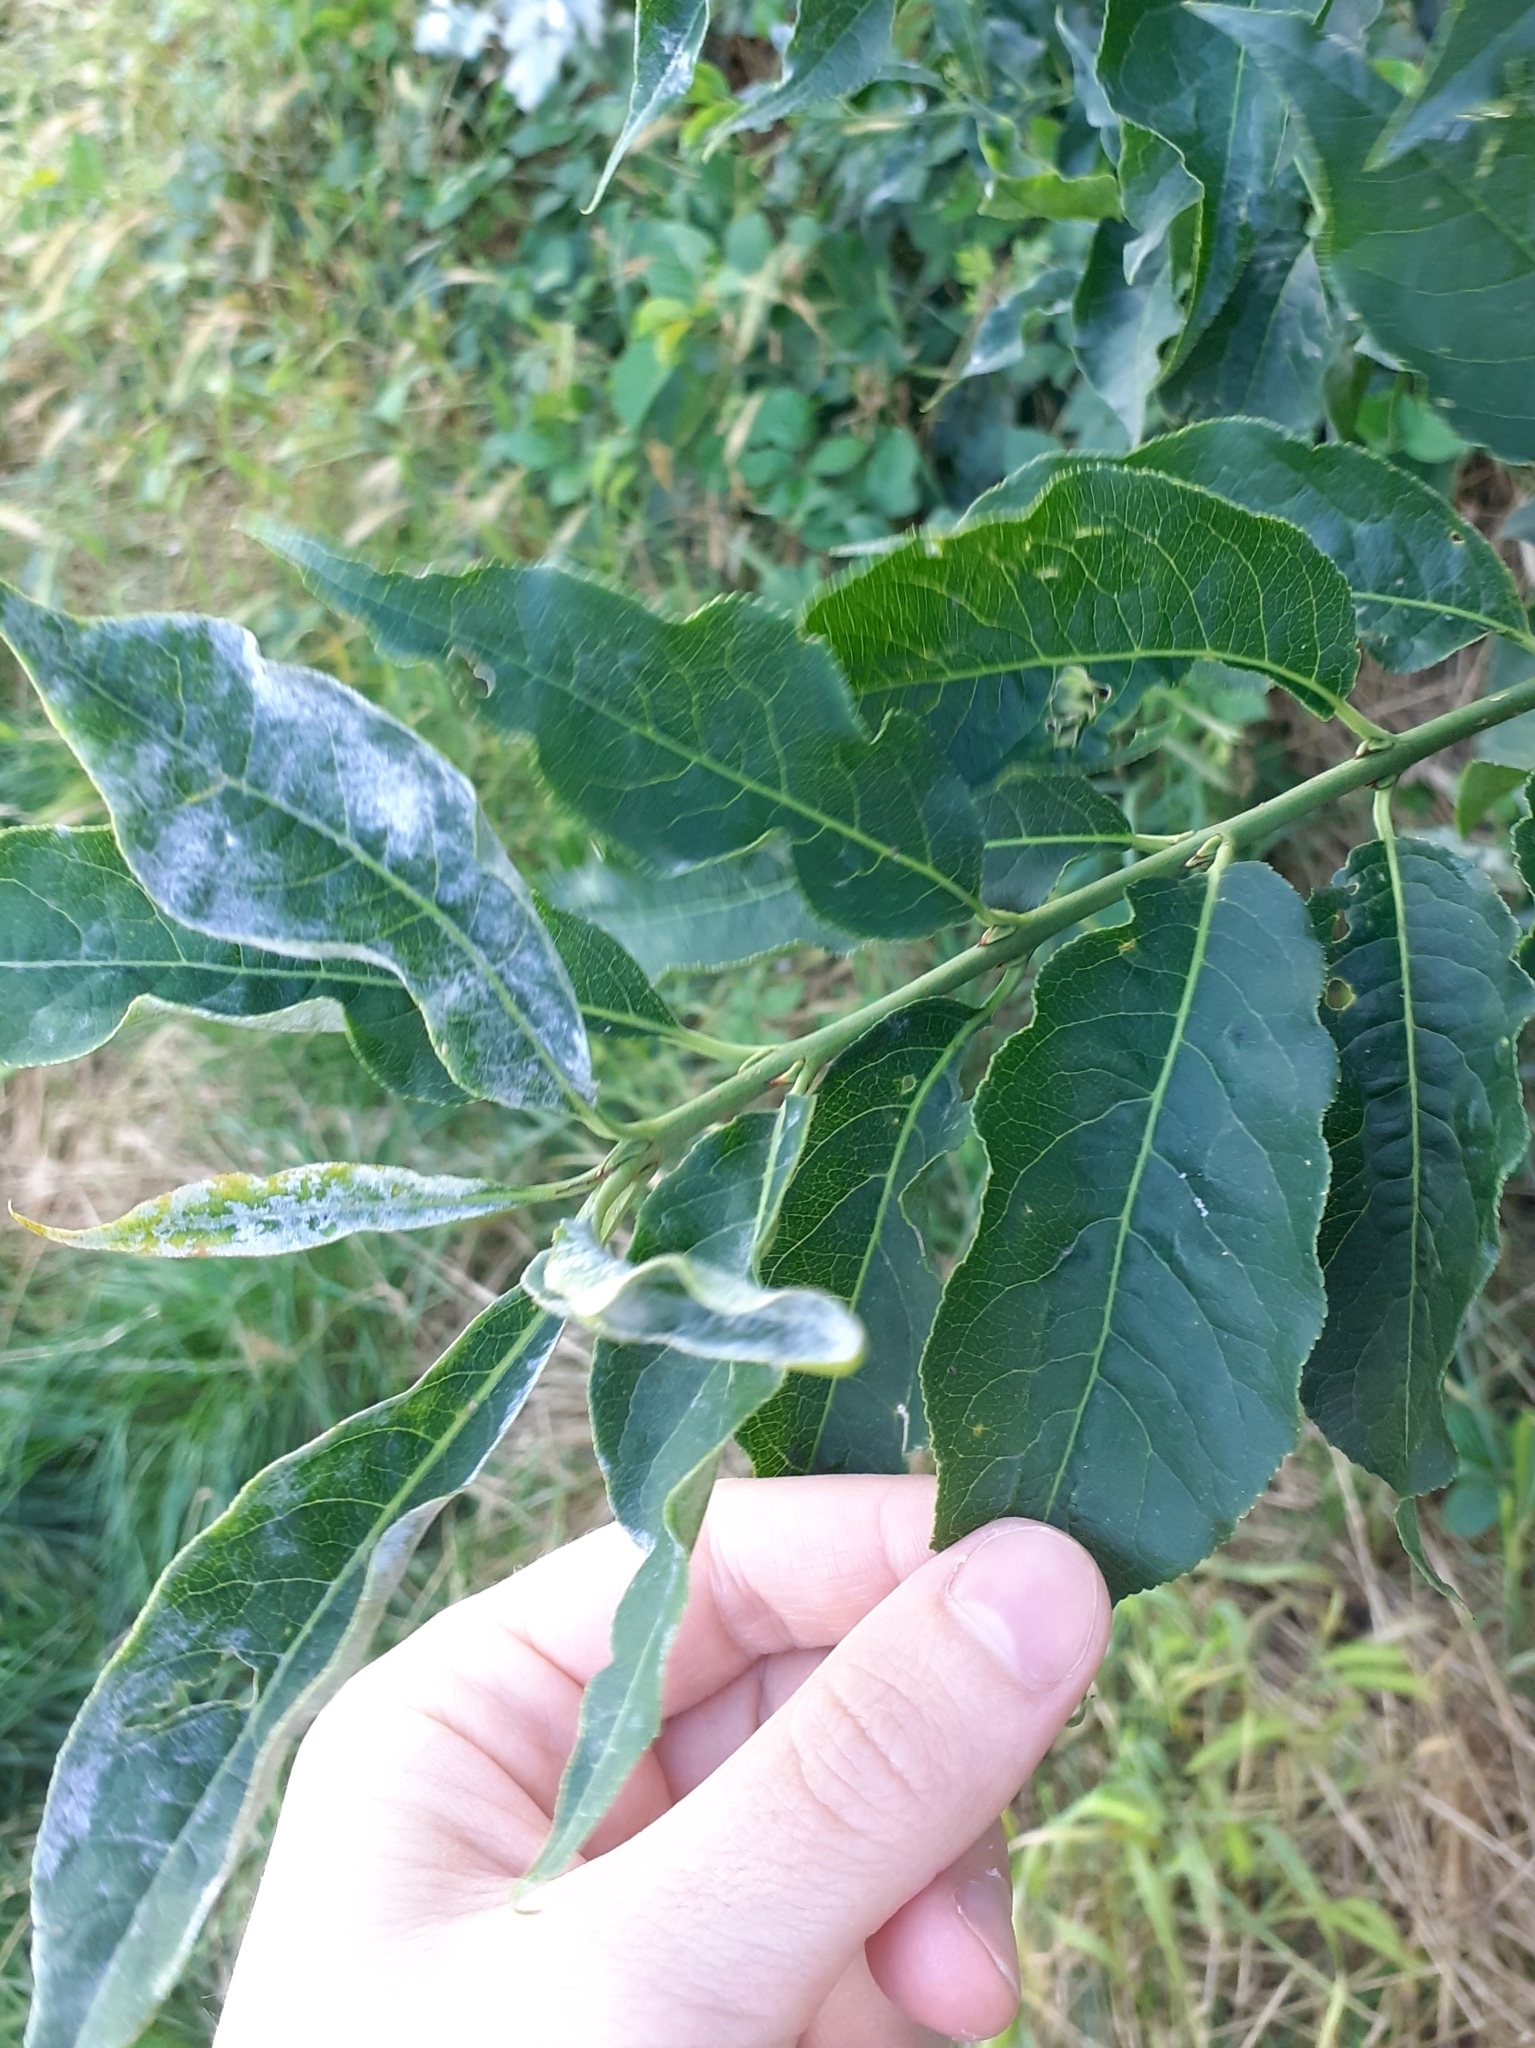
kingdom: Plantae
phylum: Tracheophyta
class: Magnoliopsida
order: Celastrales
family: Celastraceae
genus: Euonymus
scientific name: Euonymus europaeus
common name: Spindle
